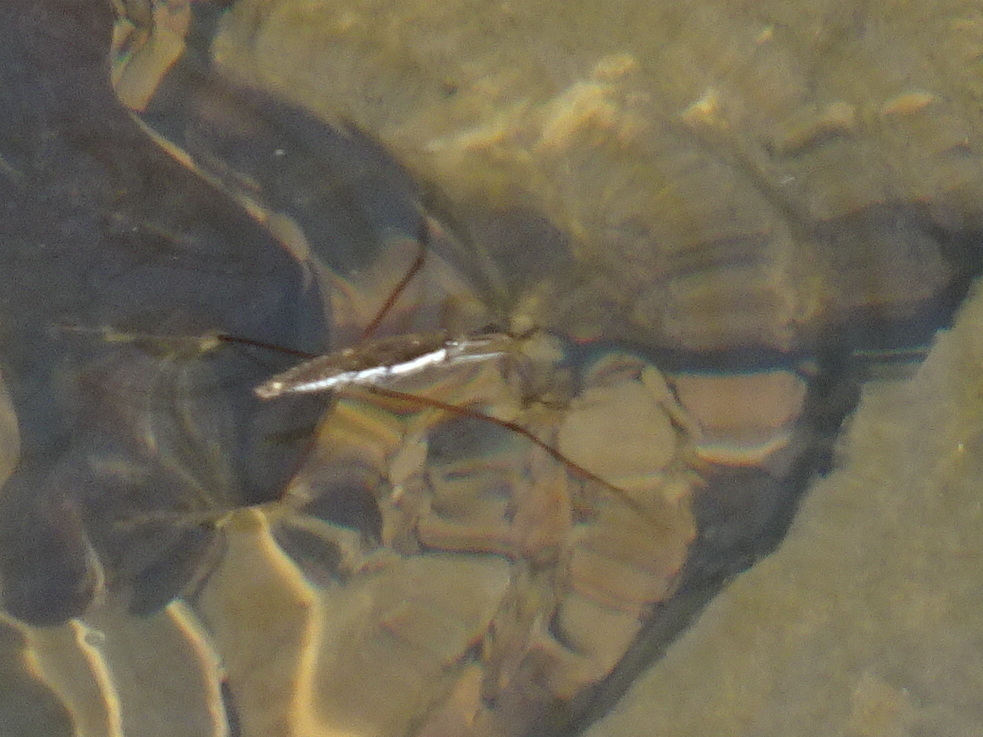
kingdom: Animalia
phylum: Arthropoda
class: Insecta
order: Hemiptera
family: Gerridae
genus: Aquarius
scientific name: Aquarius remigis
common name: Common water strider
